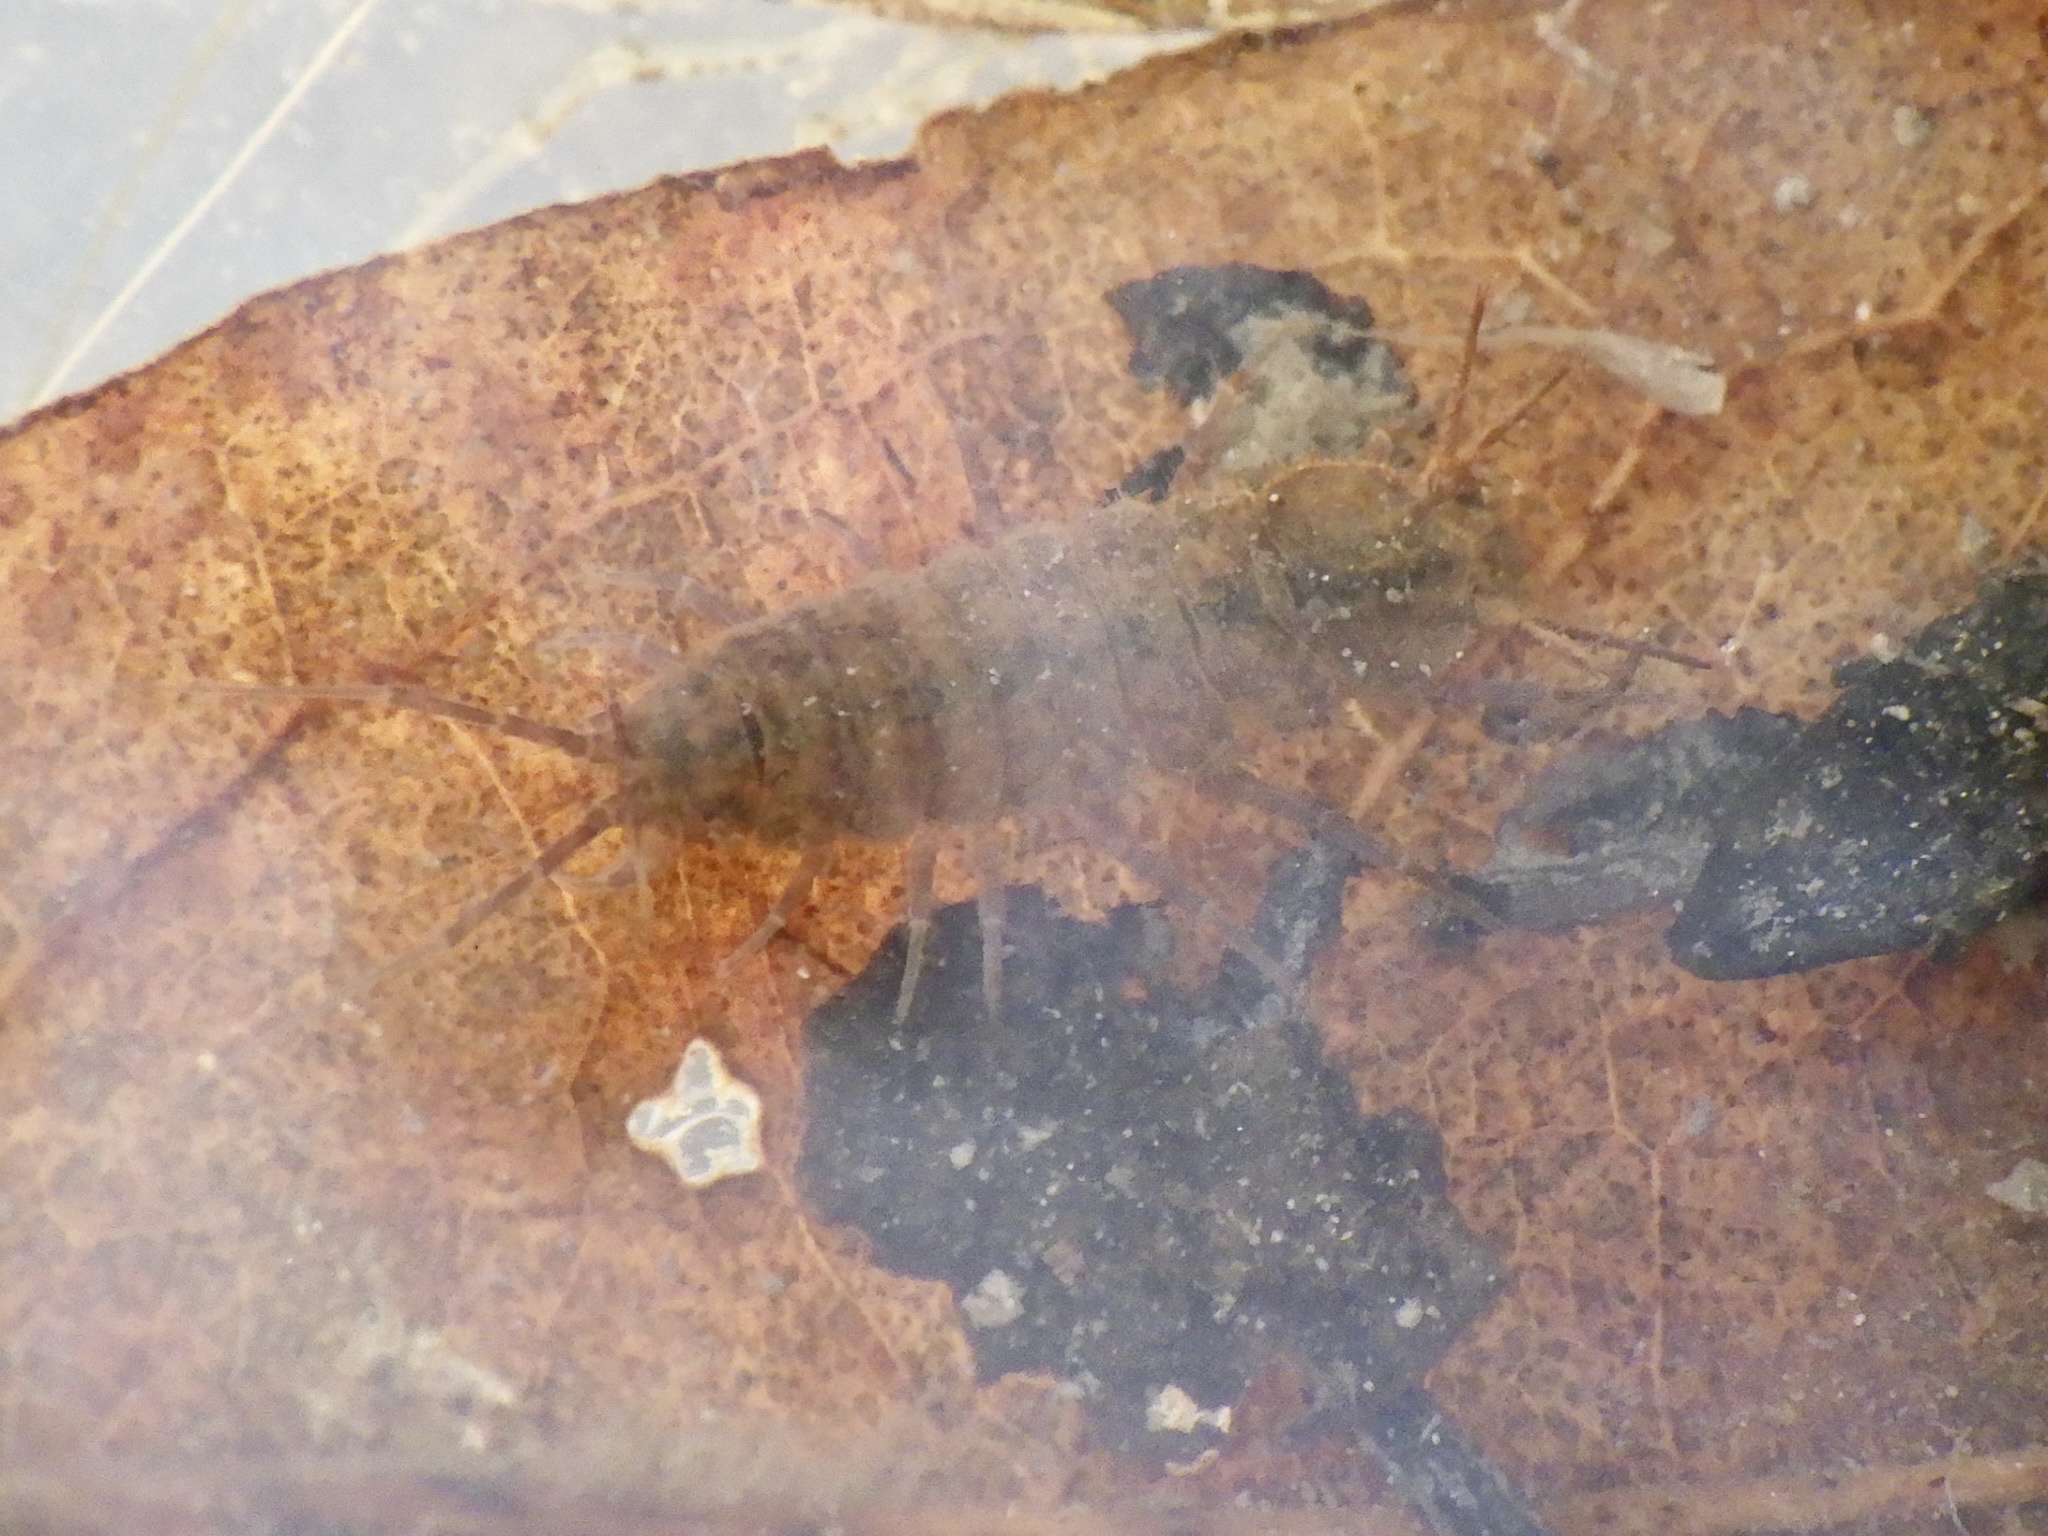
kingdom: Animalia
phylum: Arthropoda
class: Malacostraca
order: Isopoda
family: Asellidae
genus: Asellus
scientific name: Asellus hilgendorfii
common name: Isopod
